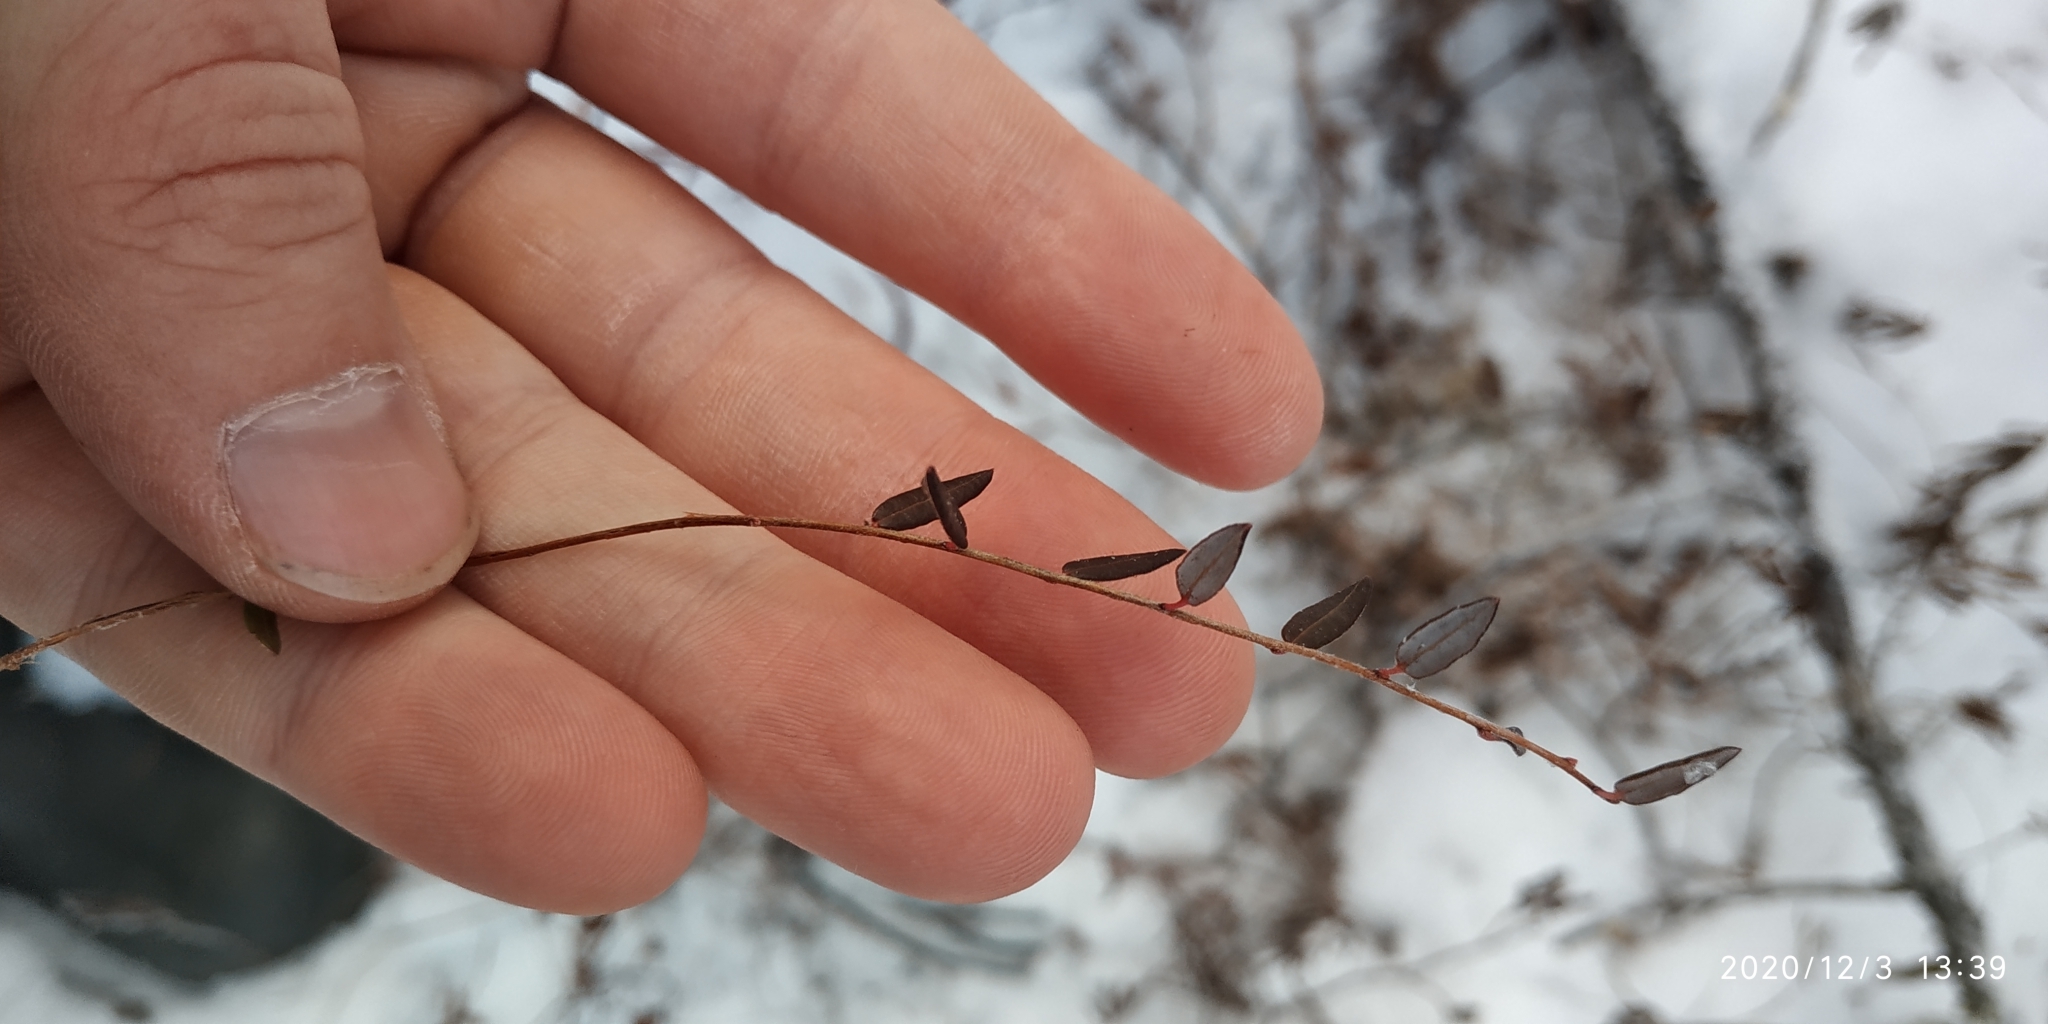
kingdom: Plantae
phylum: Tracheophyta
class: Magnoliopsida
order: Ericales
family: Ericaceae
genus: Vaccinium
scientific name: Vaccinium oxycoccos
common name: Cranberry
